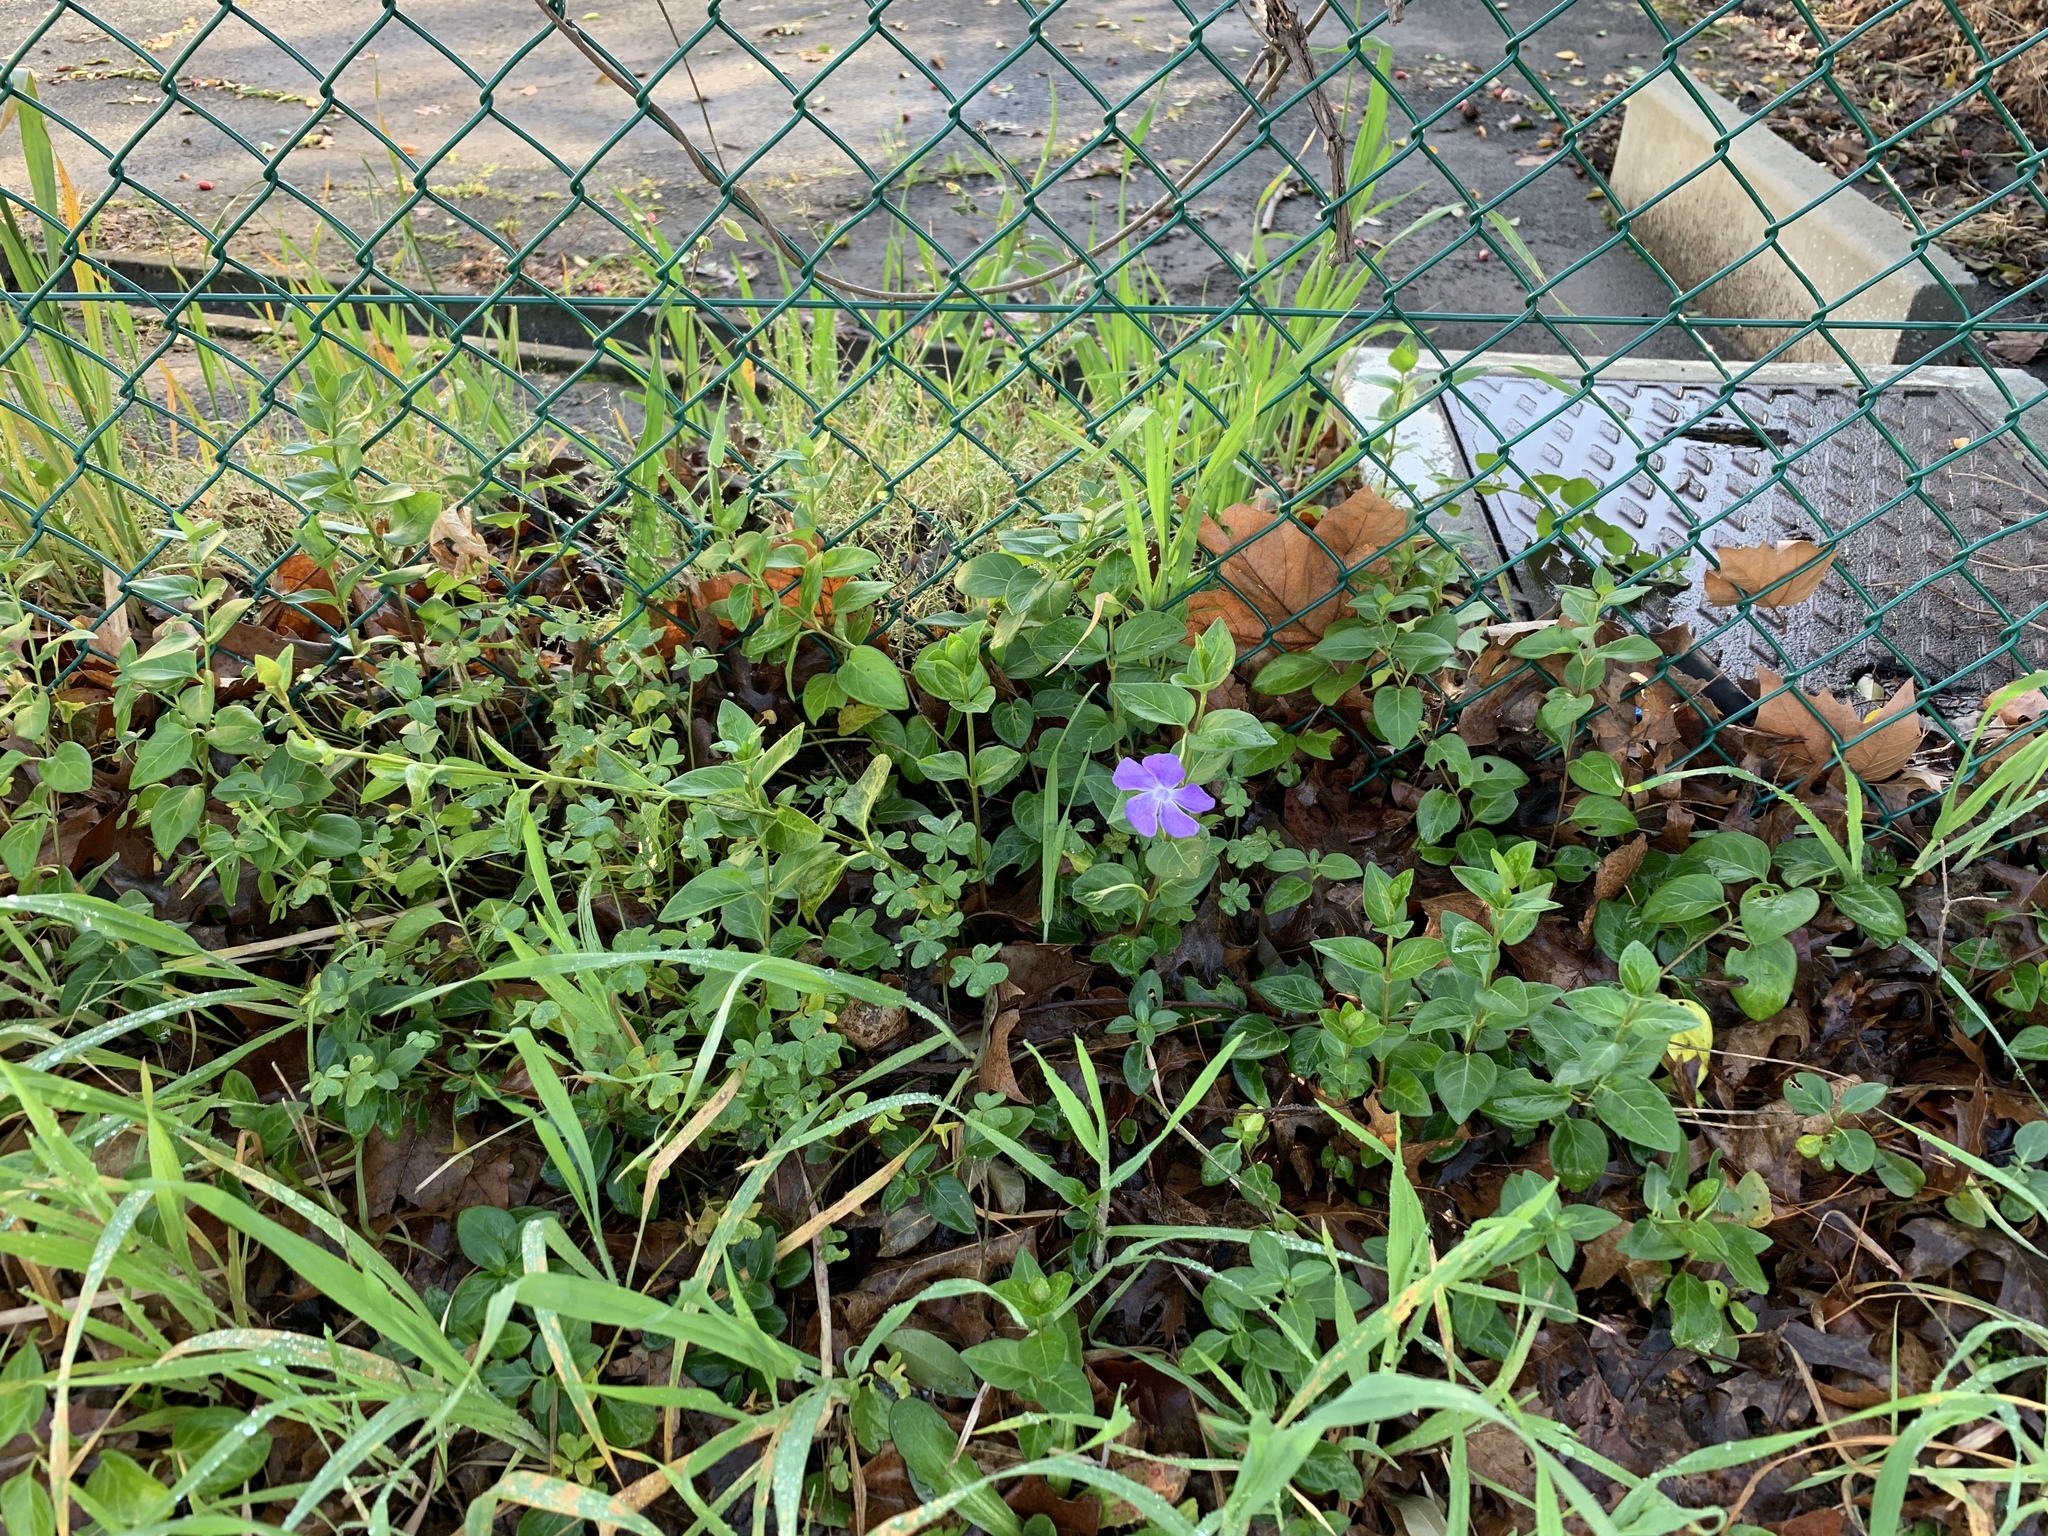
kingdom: Plantae
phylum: Tracheophyta
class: Magnoliopsida
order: Gentianales
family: Apocynaceae
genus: Vinca
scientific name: Vinca major
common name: Greater periwinkle
